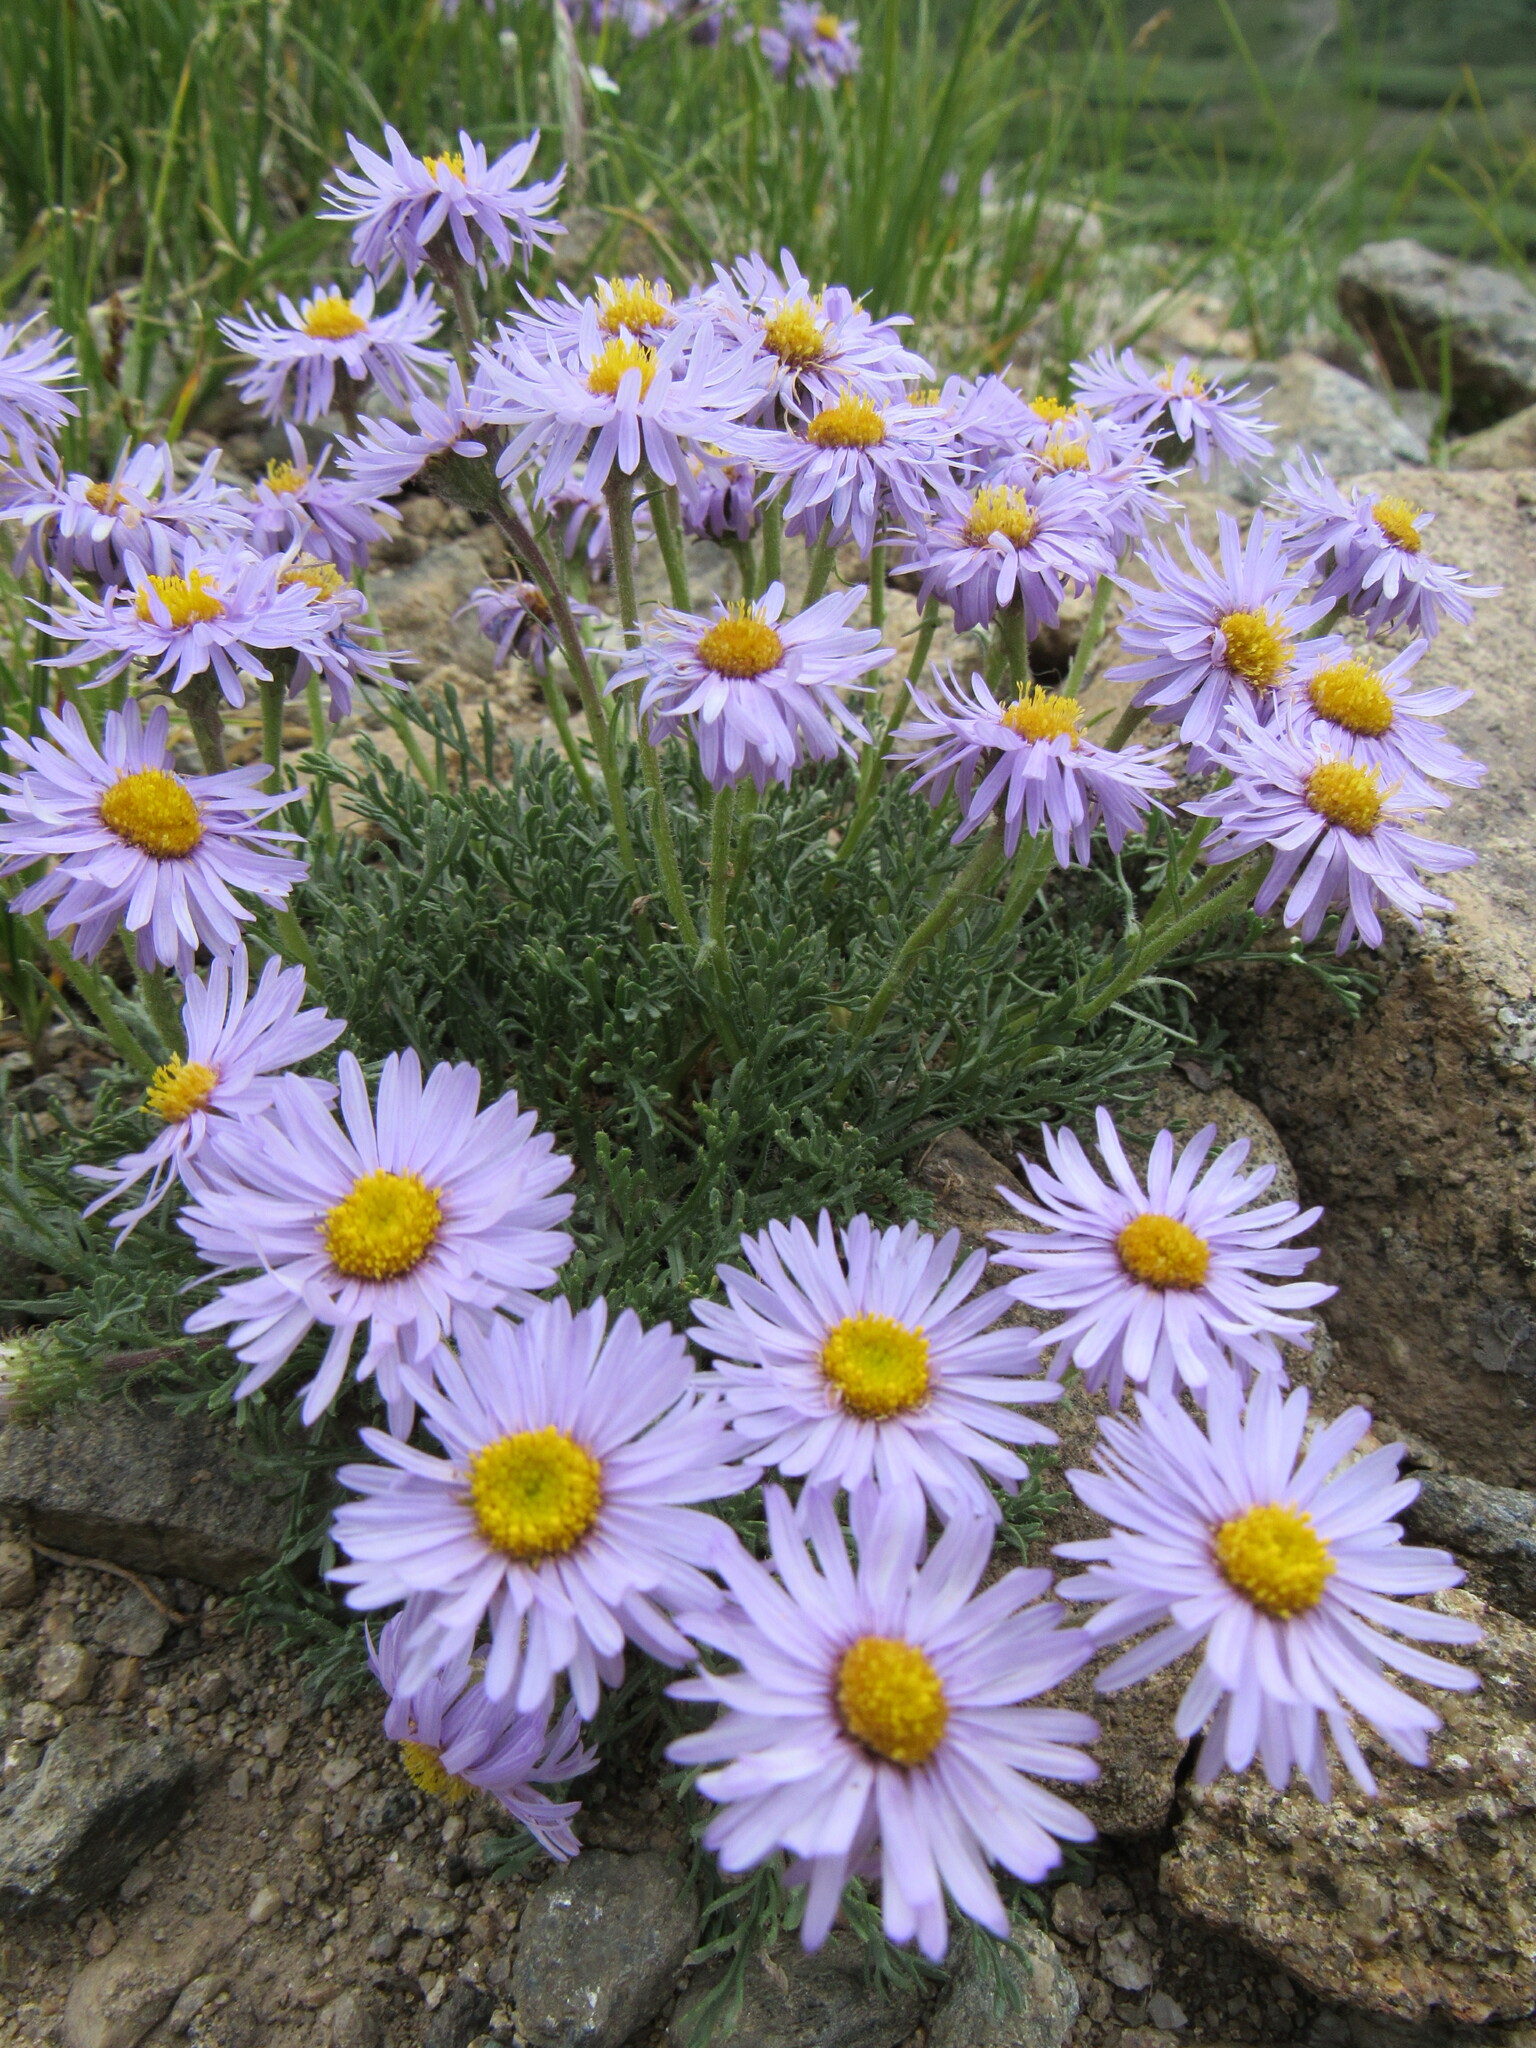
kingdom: Plantae
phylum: Tracheophyta
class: Magnoliopsida
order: Asterales
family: Asteraceae
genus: Erigeron
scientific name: Erigeron pinnatisectus
